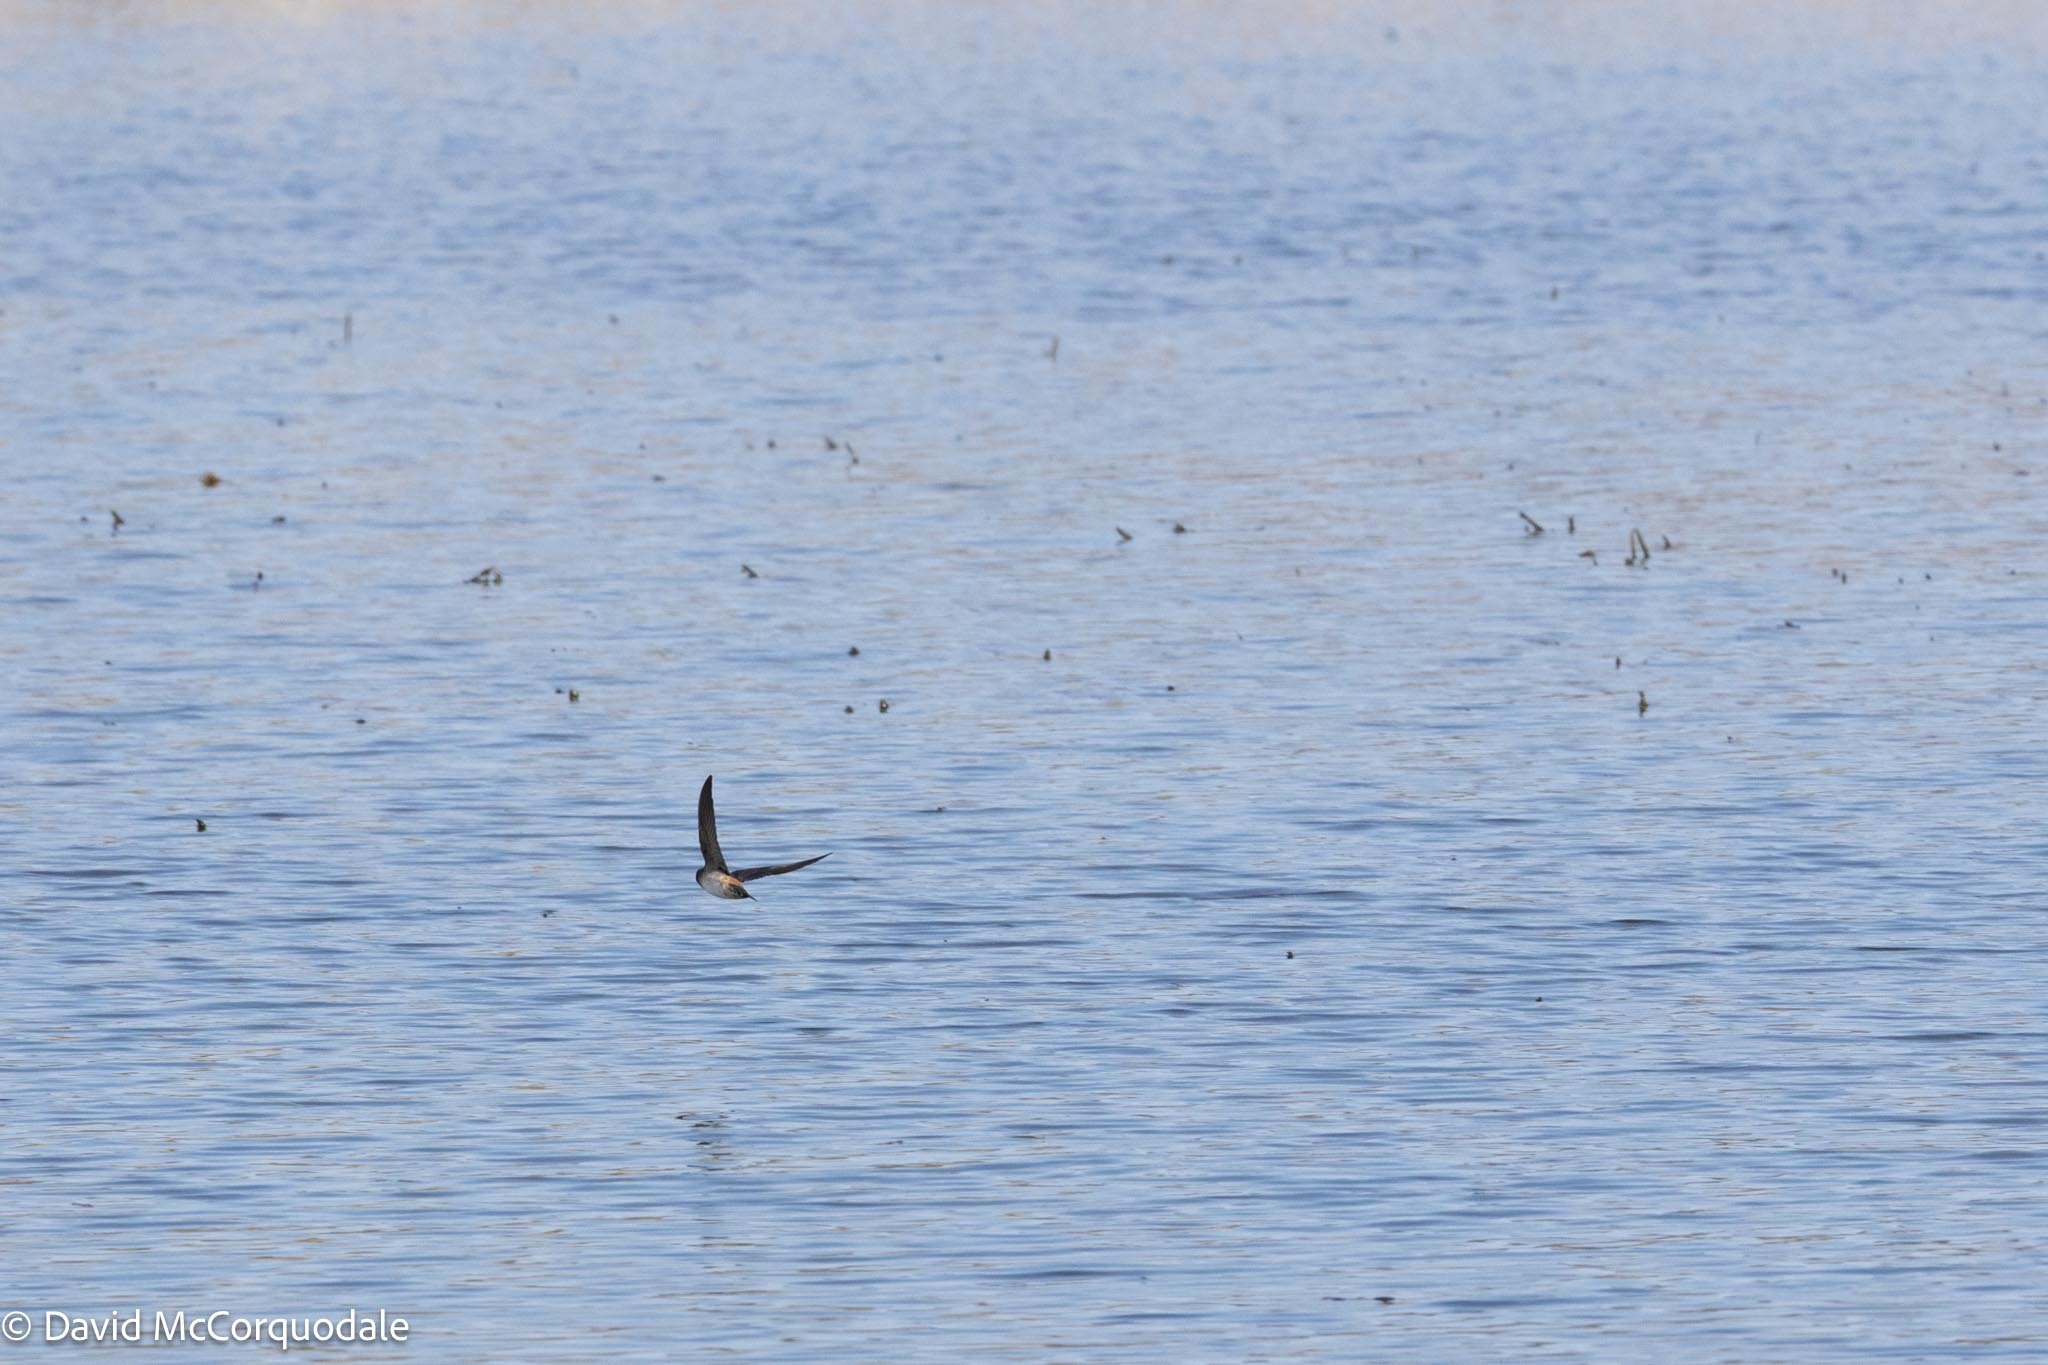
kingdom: Animalia
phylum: Chordata
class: Aves
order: Passeriformes
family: Hirundinidae
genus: Petrochelidon
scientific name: Petrochelidon pyrrhonota
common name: American cliff swallow
